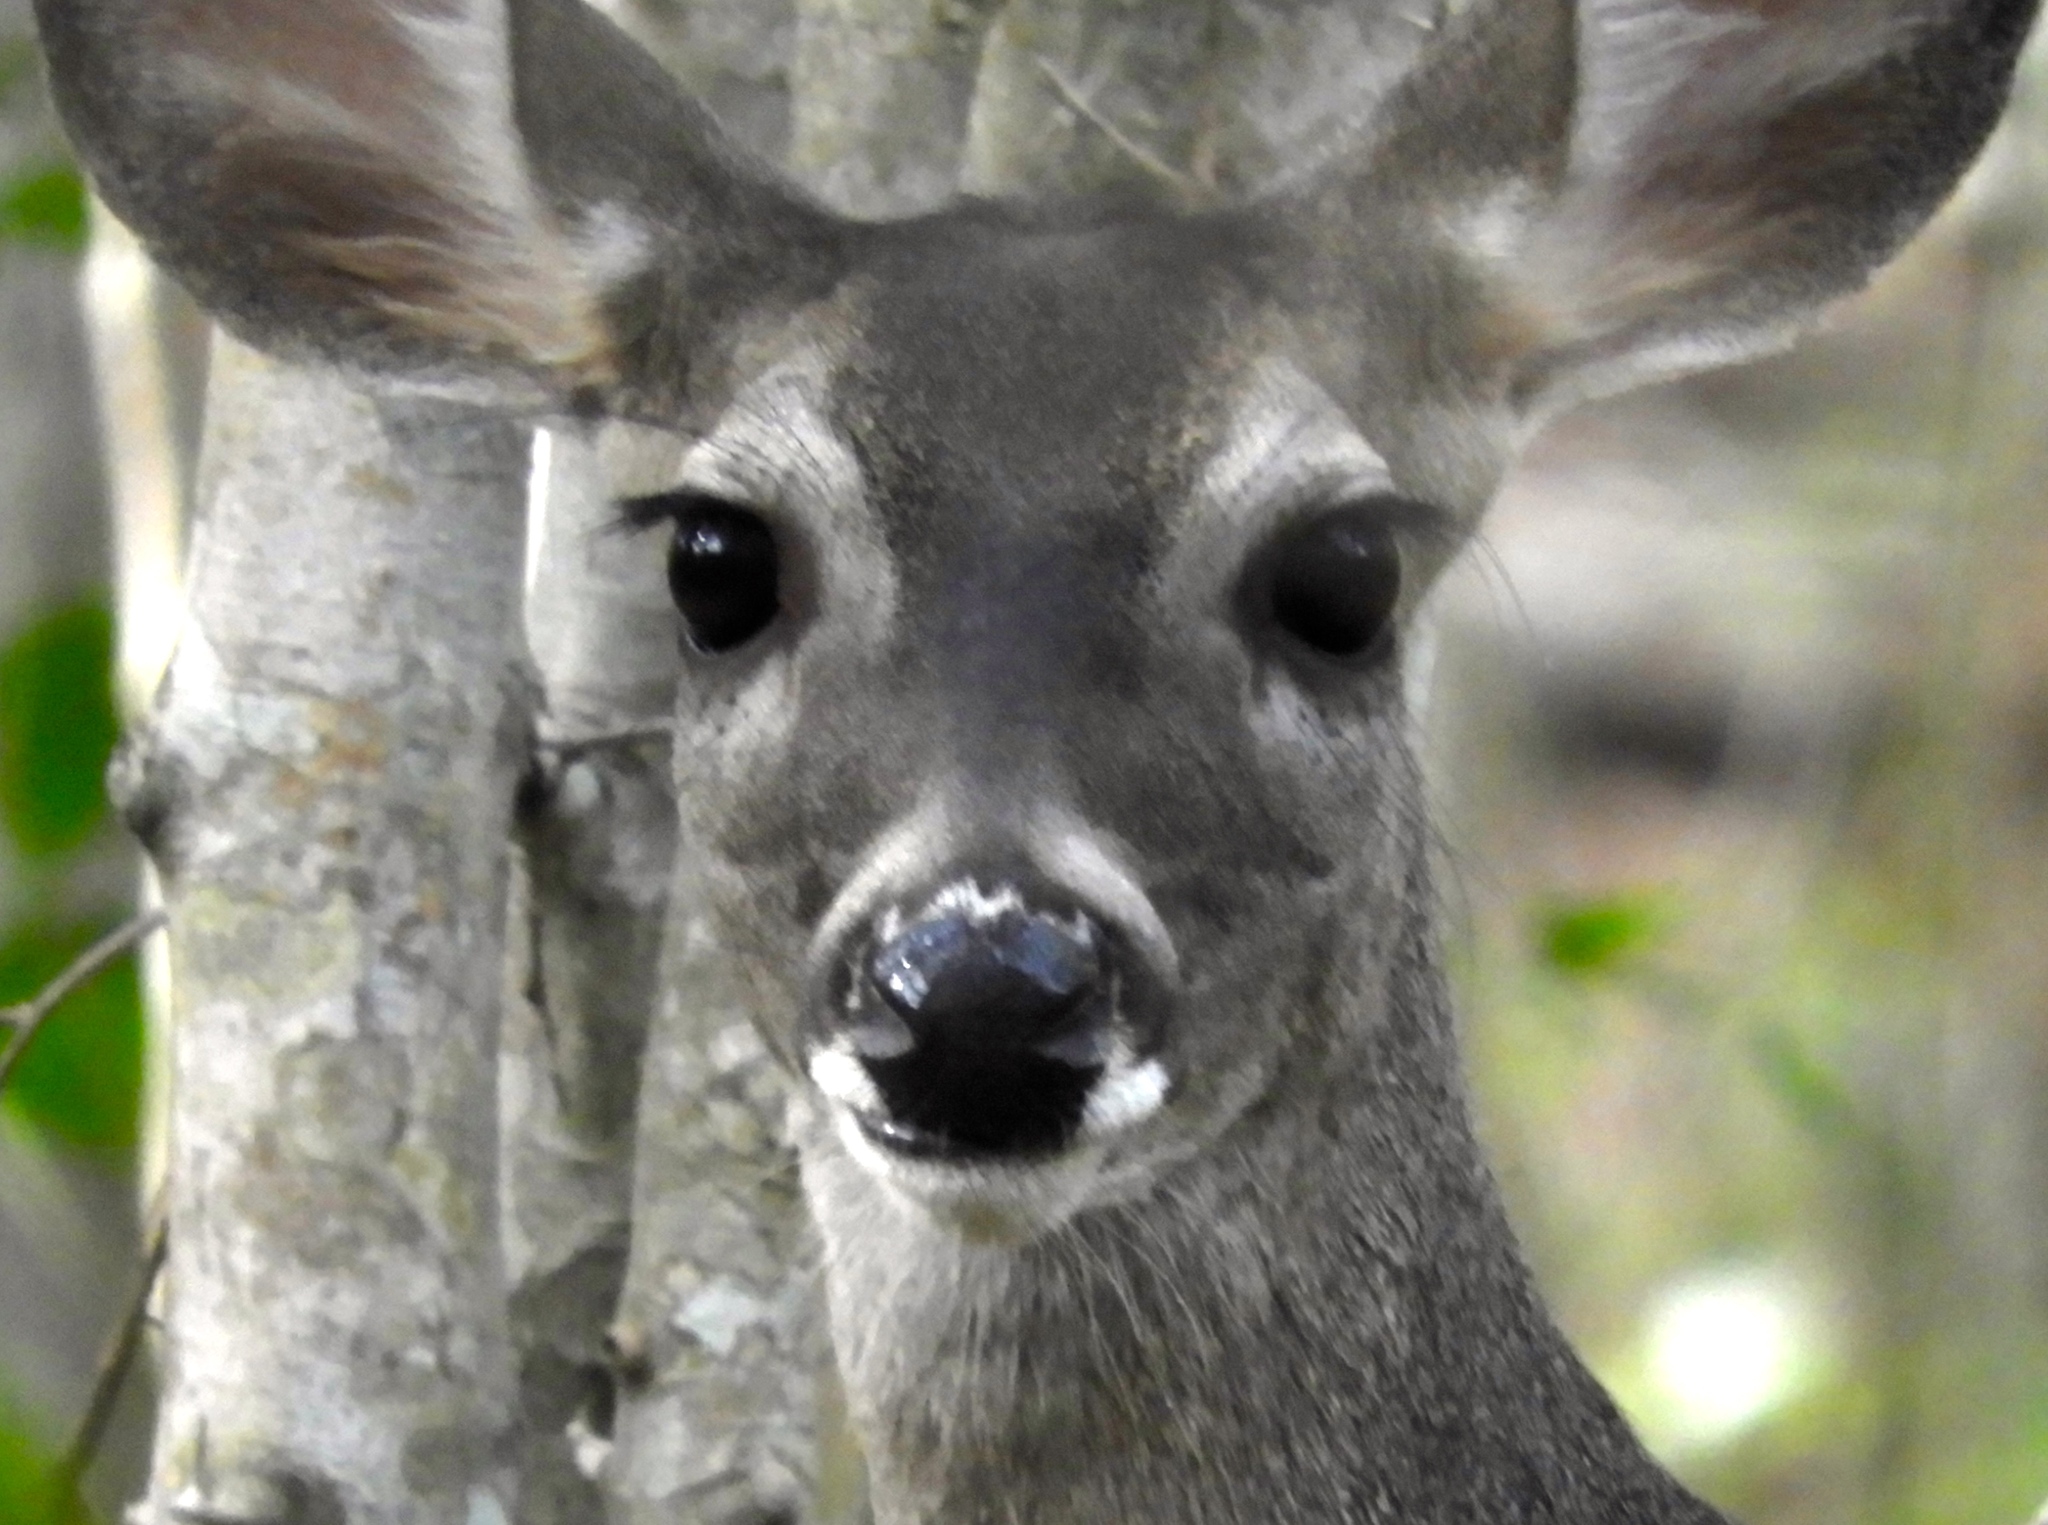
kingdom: Animalia
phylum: Chordata
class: Mammalia
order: Artiodactyla
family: Cervidae
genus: Odocoileus
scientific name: Odocoileus virginianus
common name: White-tailed deer
